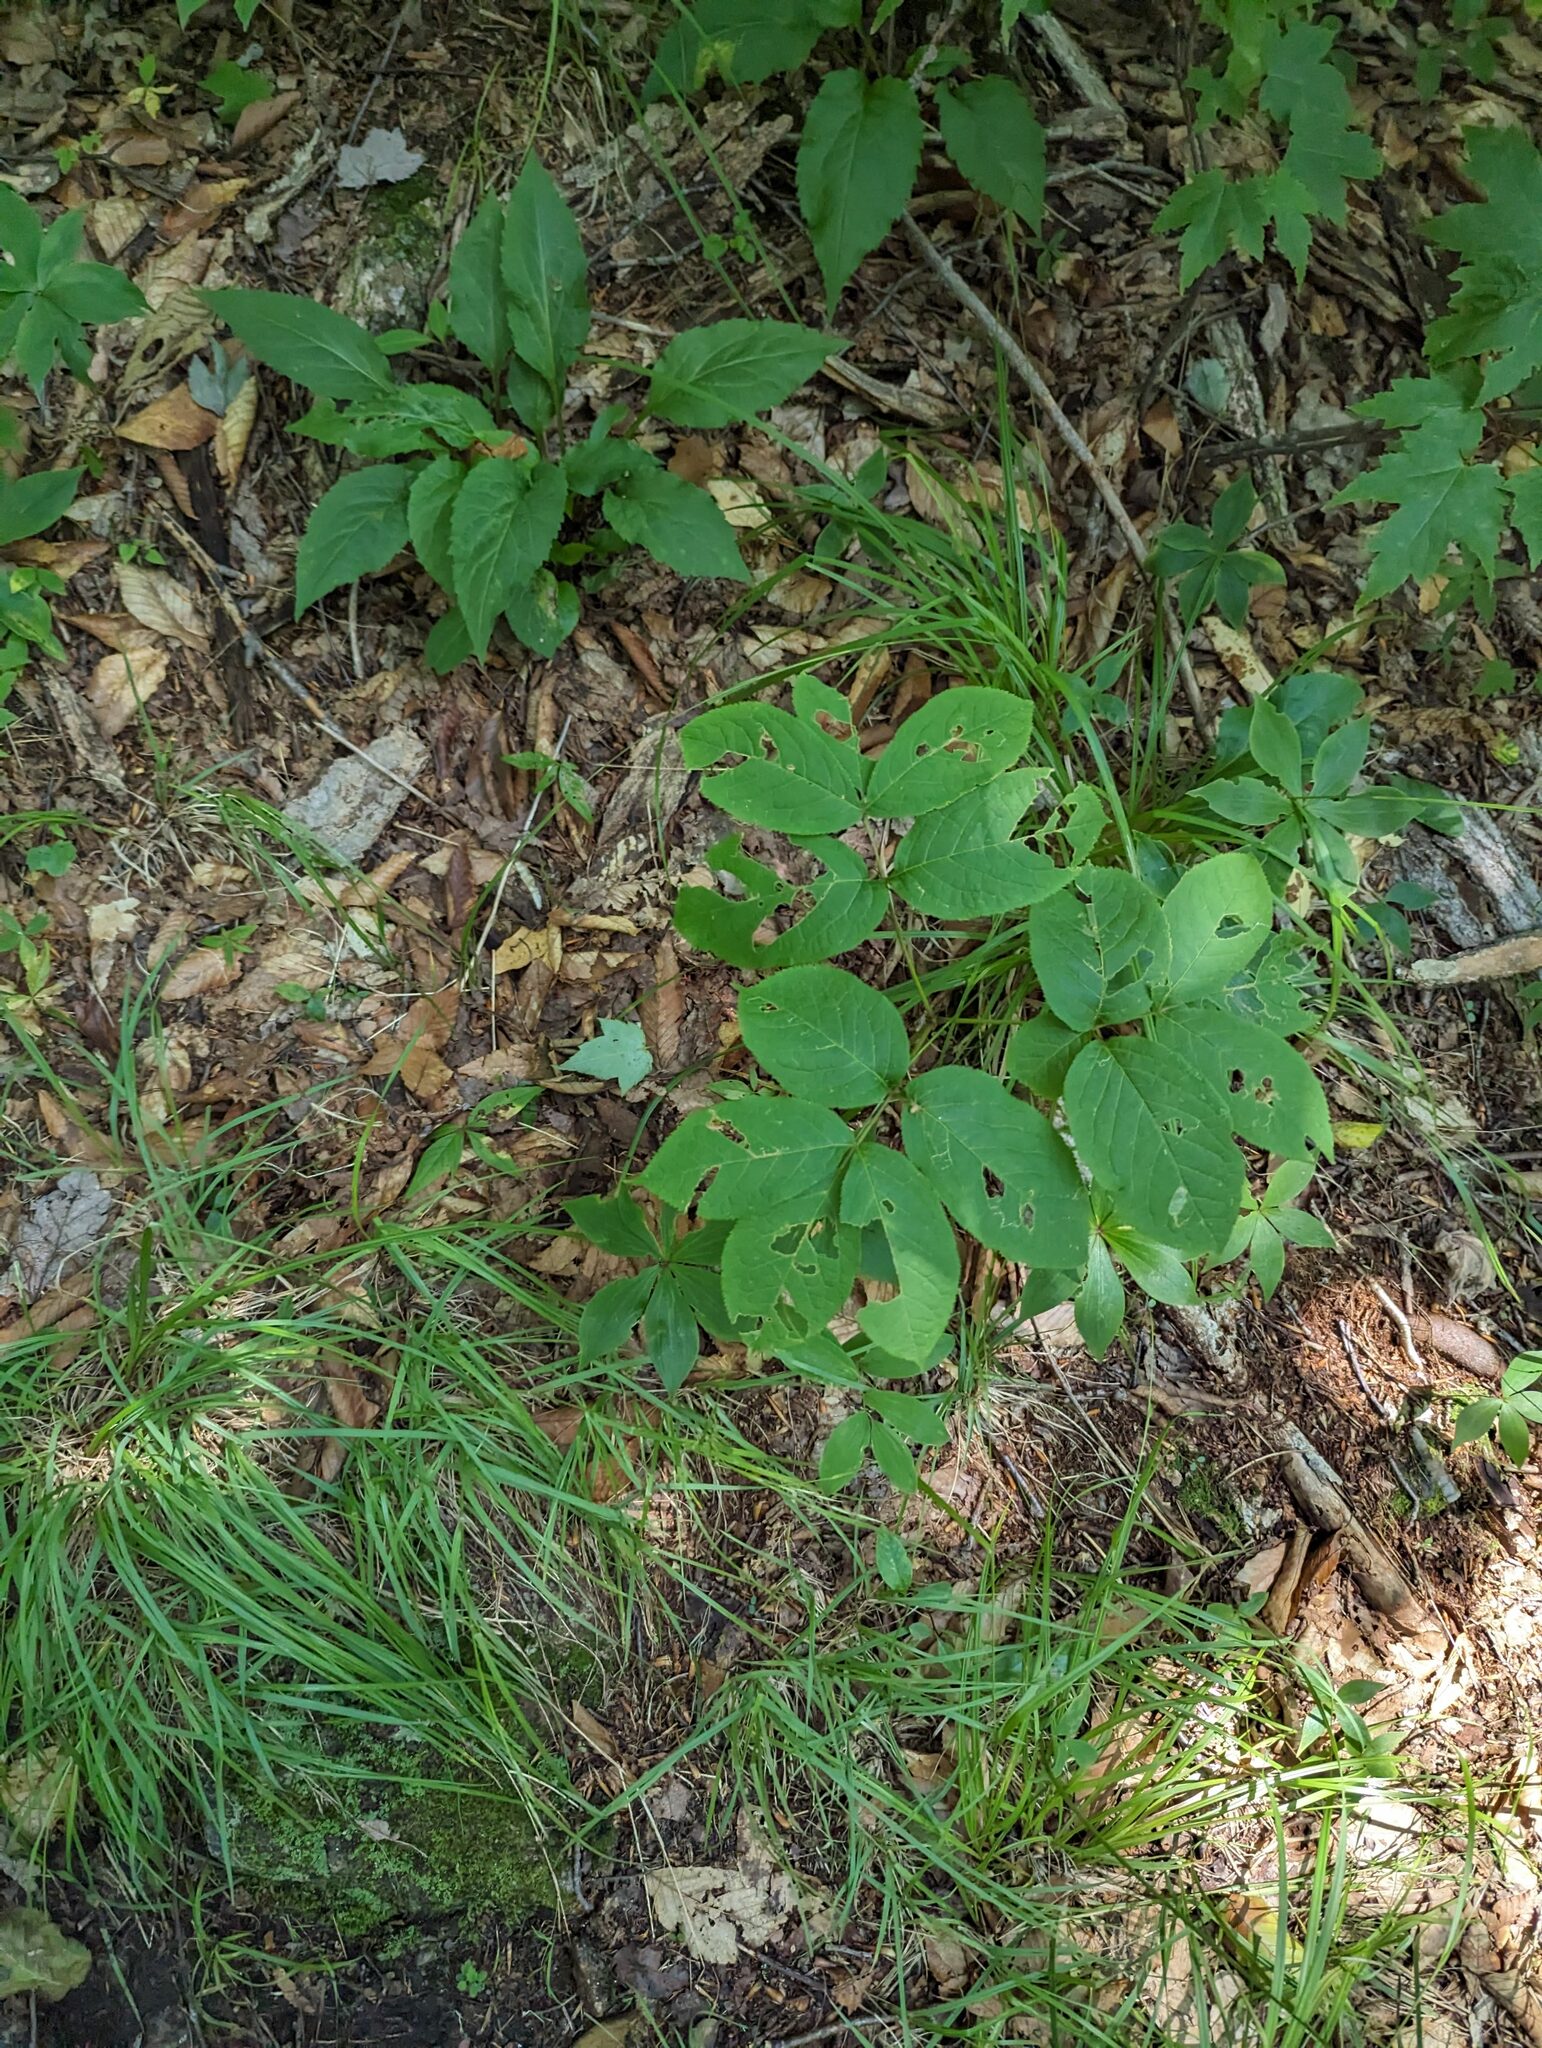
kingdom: Plantae
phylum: Tracheophyta
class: Magnoliopsida
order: Apiales
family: Araliaceae
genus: Aralia
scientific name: Aralia nudicaulis
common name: Wild sarsaparilla
